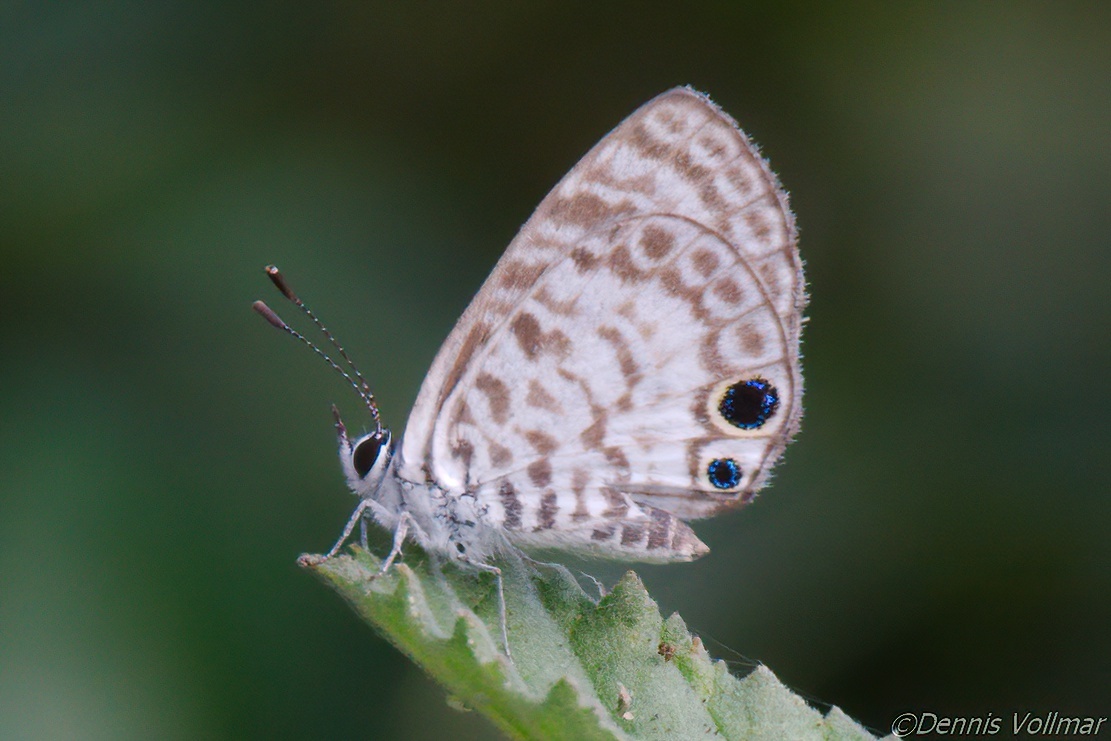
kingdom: Animalia
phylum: Arthropoda
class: Insecta
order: Lepidoptera
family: Lycaenidae
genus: Leptotes
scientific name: Leptotes cassius
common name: Cassius blue
